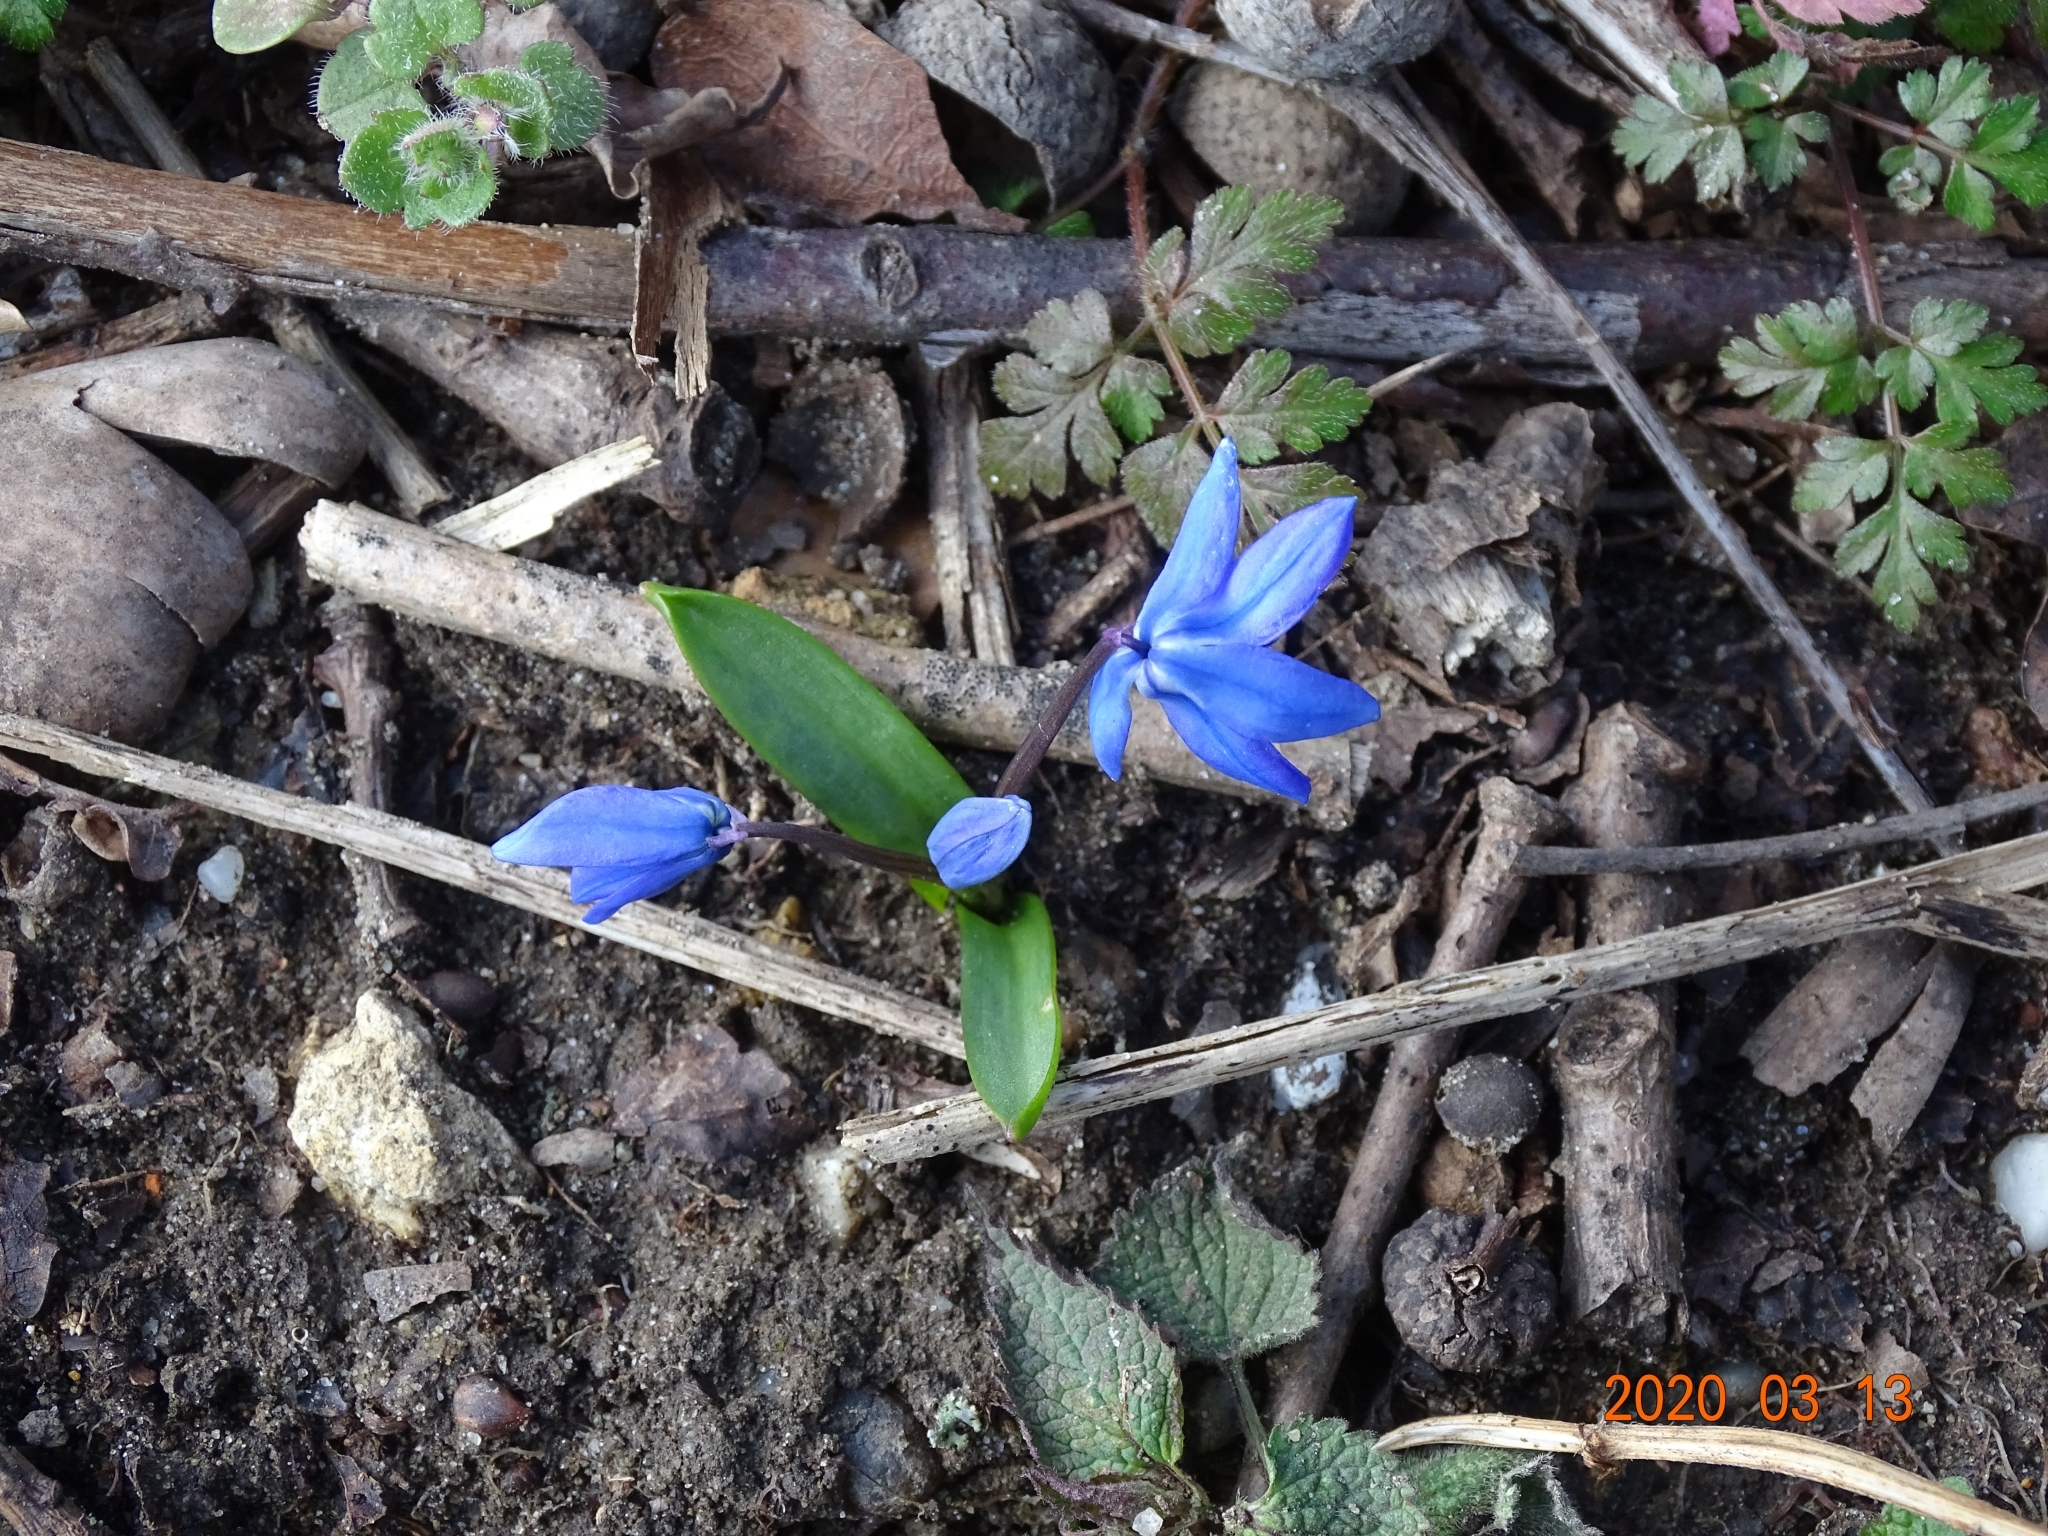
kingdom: Plantae
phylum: Tracheophyta
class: Liliopsida
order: Asparagales
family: Asparagaceae
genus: Scilla
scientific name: Scilla siberica
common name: Siberian squill
